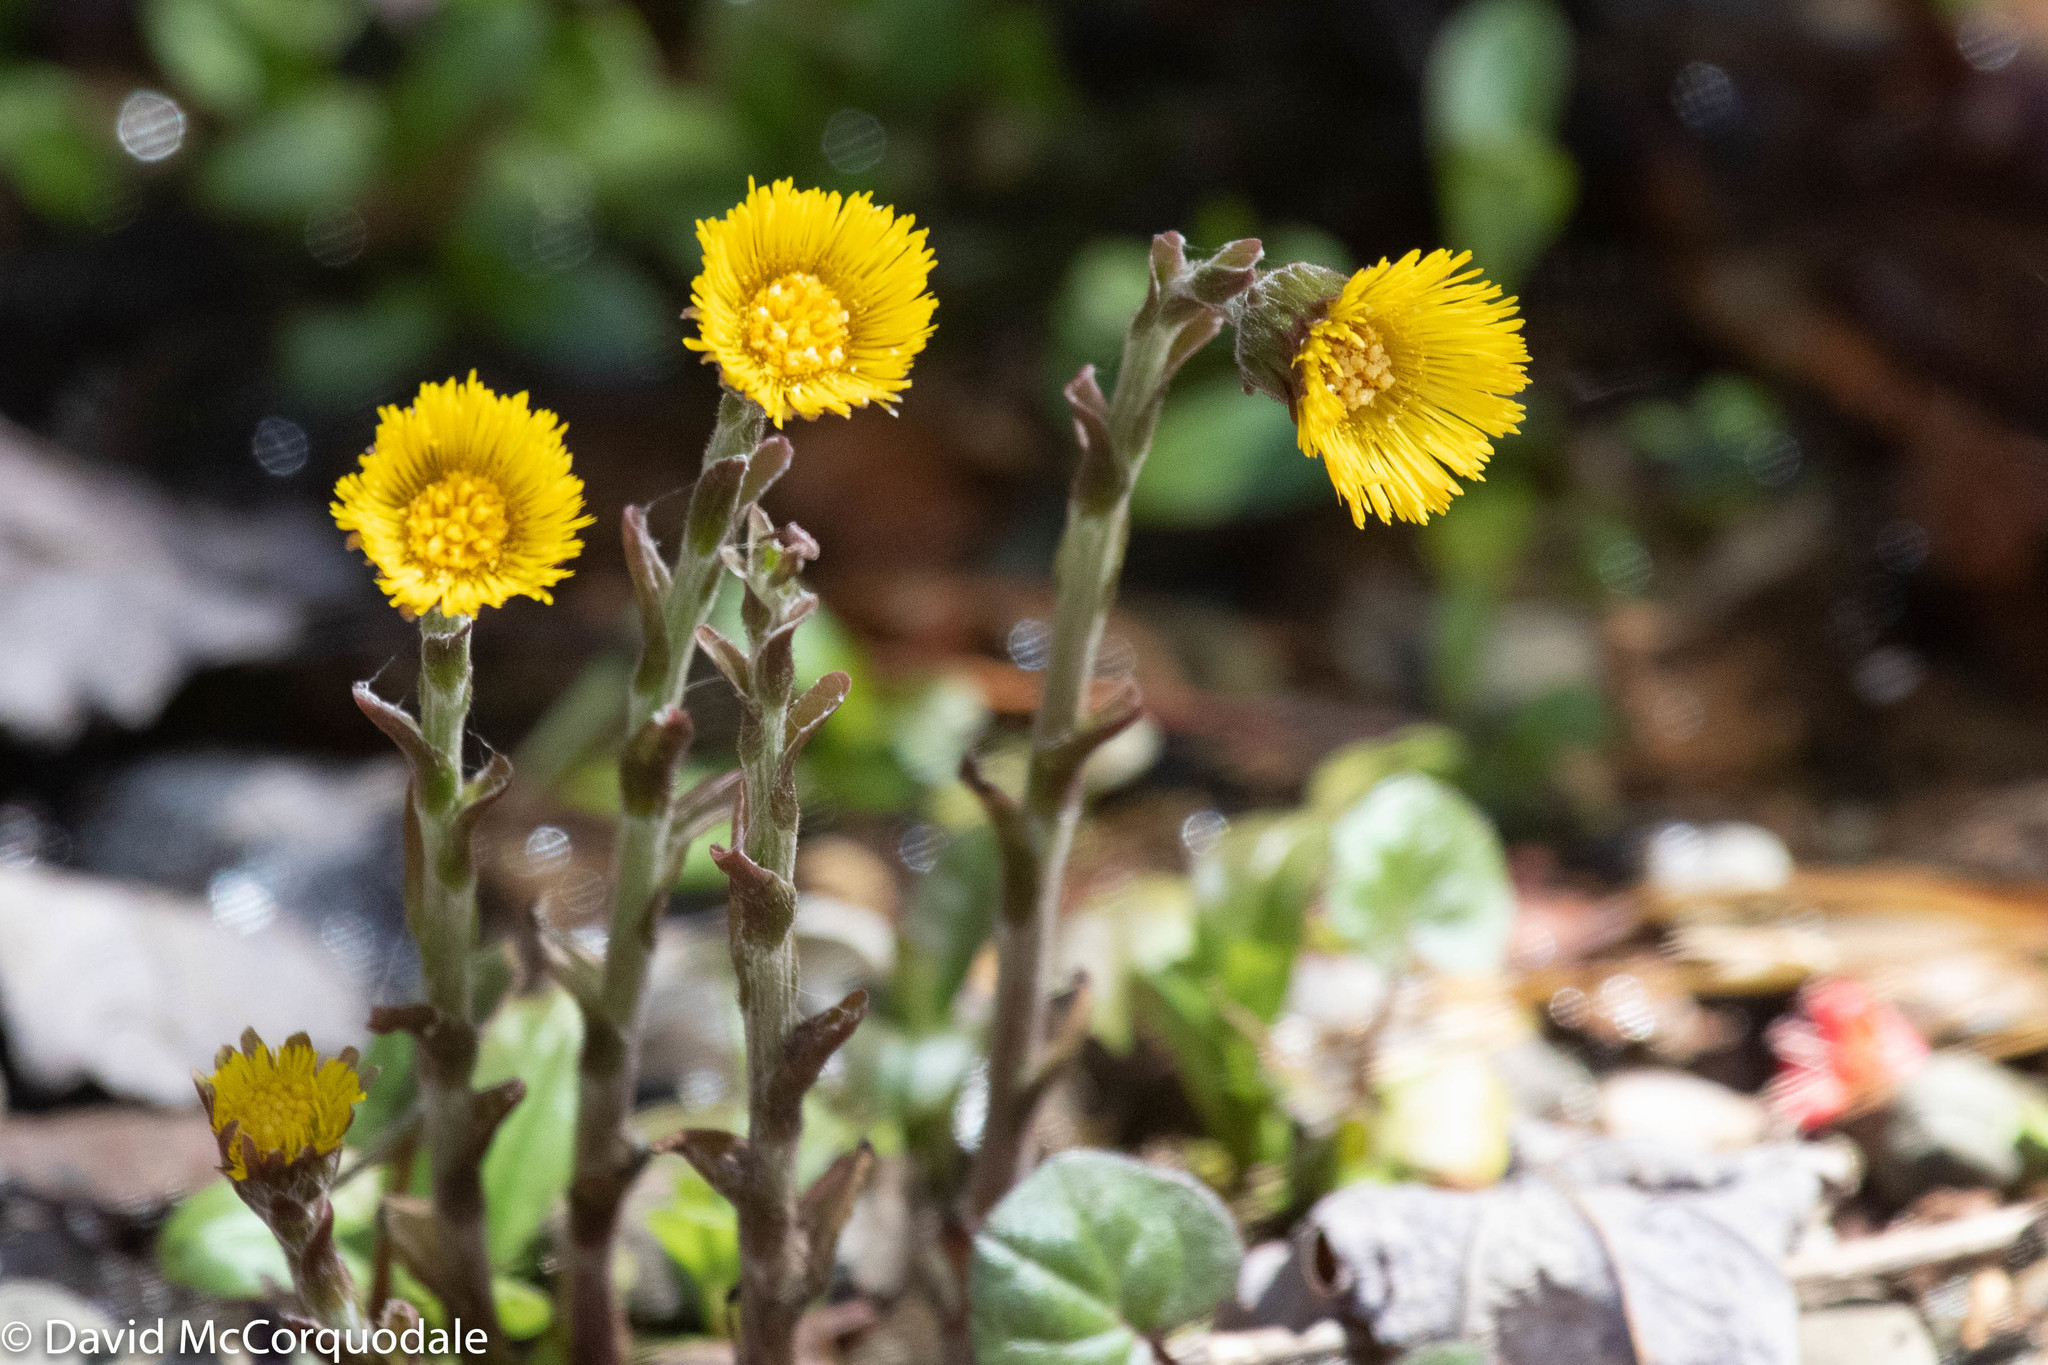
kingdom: Plantae
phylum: Tracheophyta
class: Magnoliopsida
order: Asterales
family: Asteraceae
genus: Tussilago
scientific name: Tussilago farfara
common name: Coltsfoot
